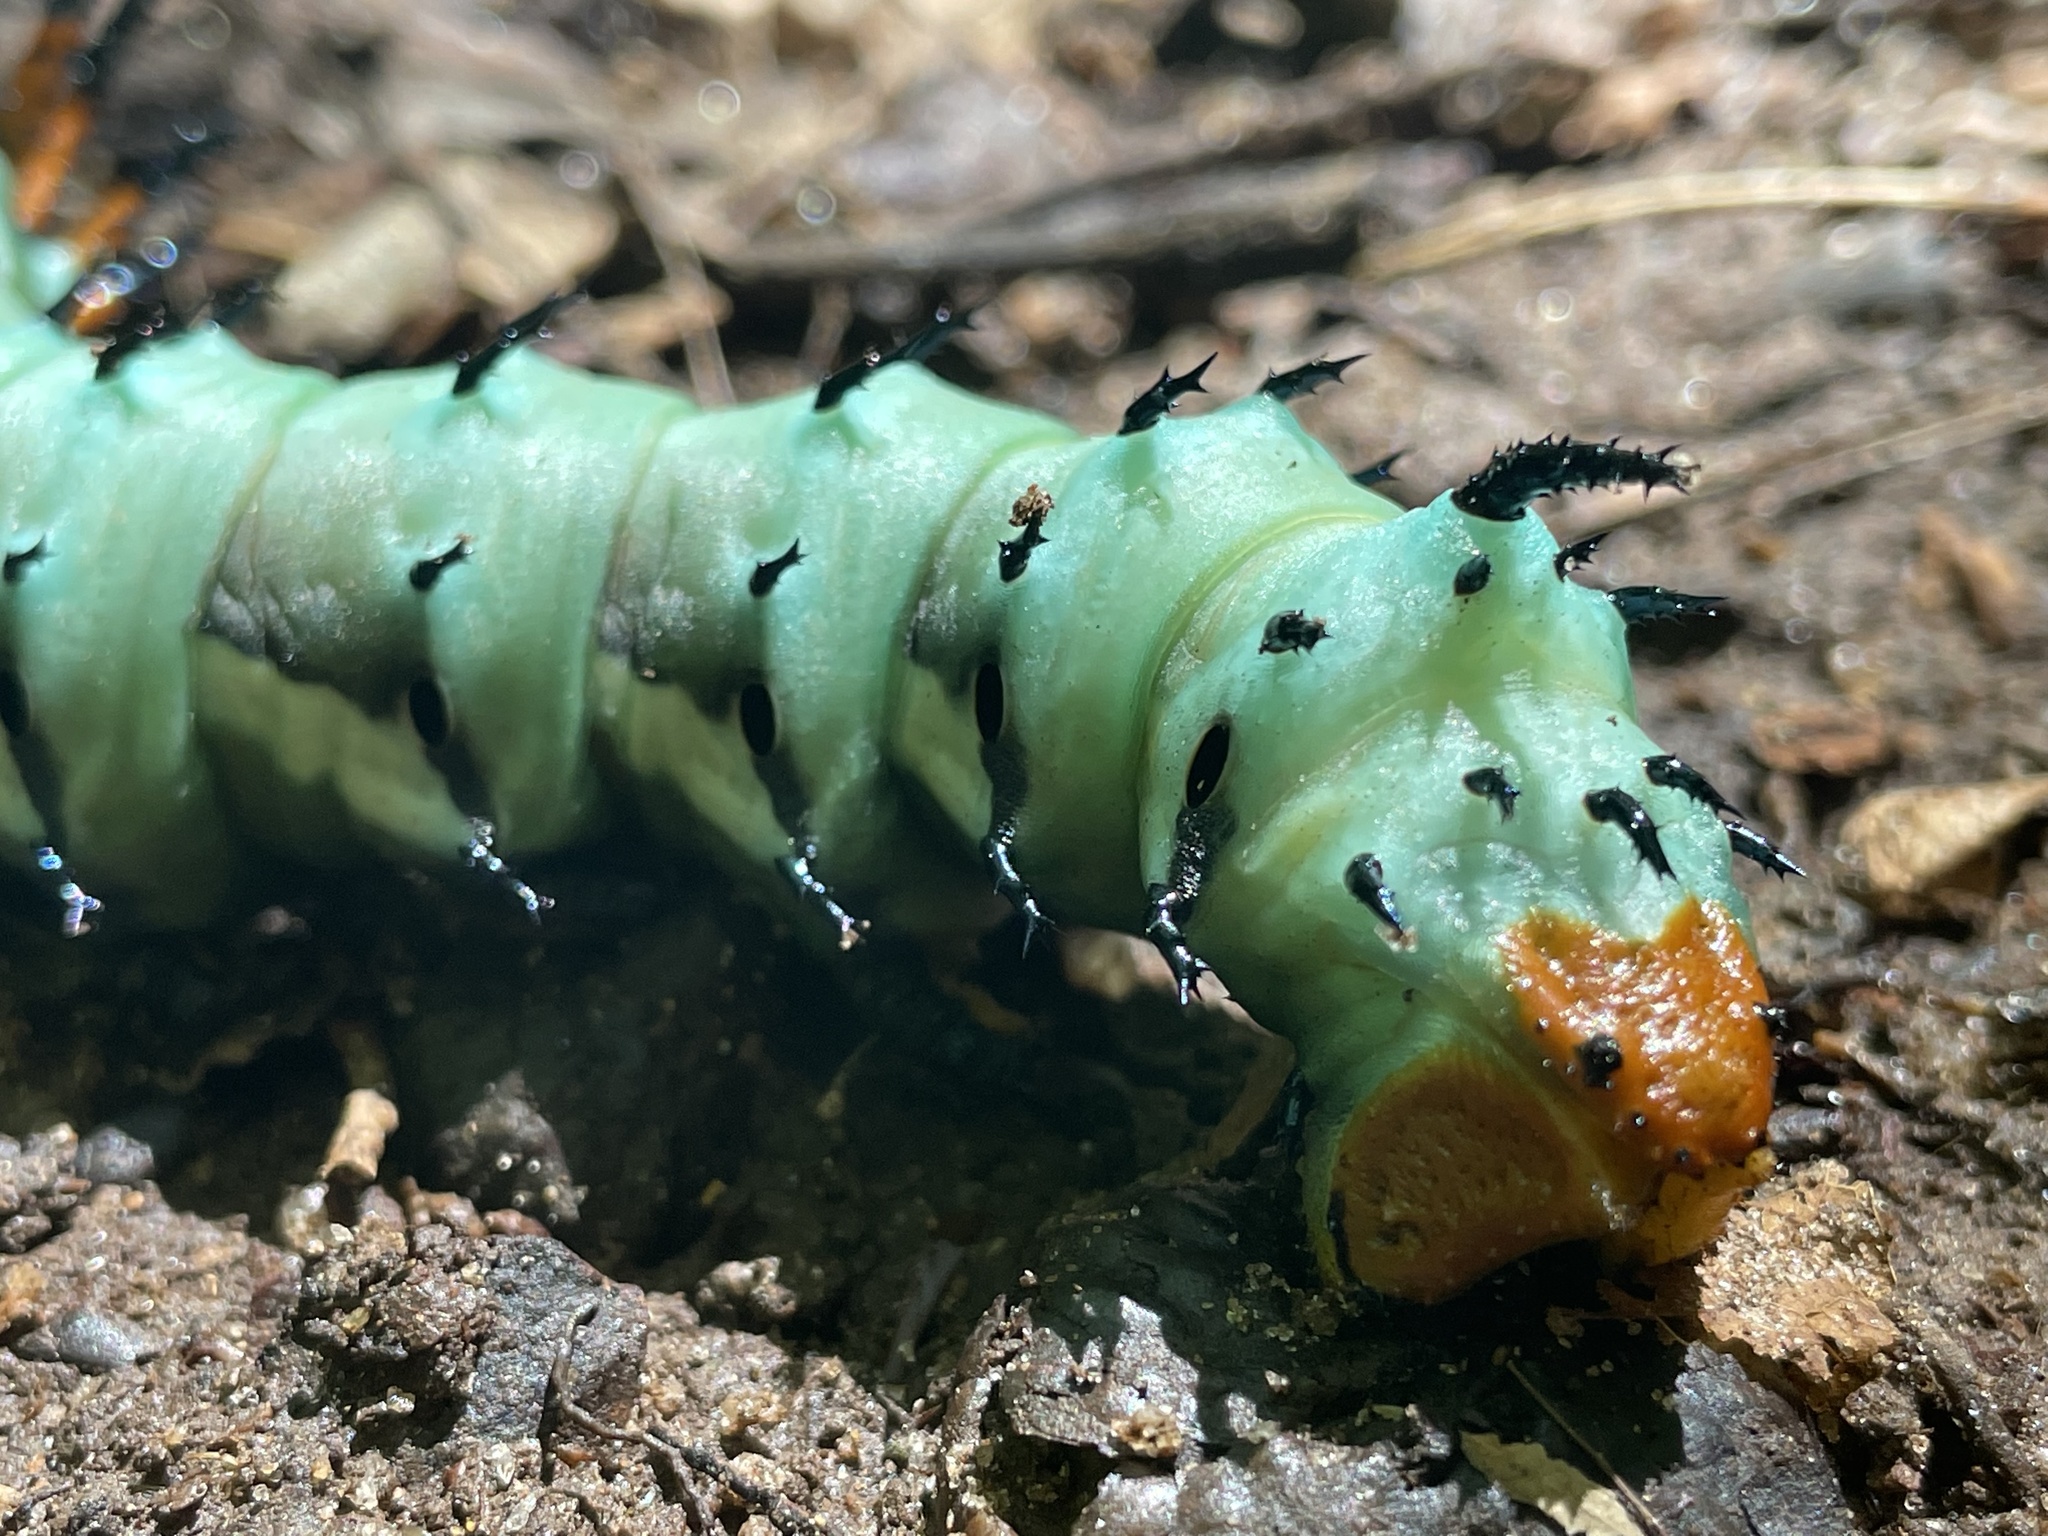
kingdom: Animalia
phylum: Arthropoda
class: Insecta
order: Lepidoptera
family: Saturniidae
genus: Citheronia
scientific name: Citheronia regalis
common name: Hickory horned devil
